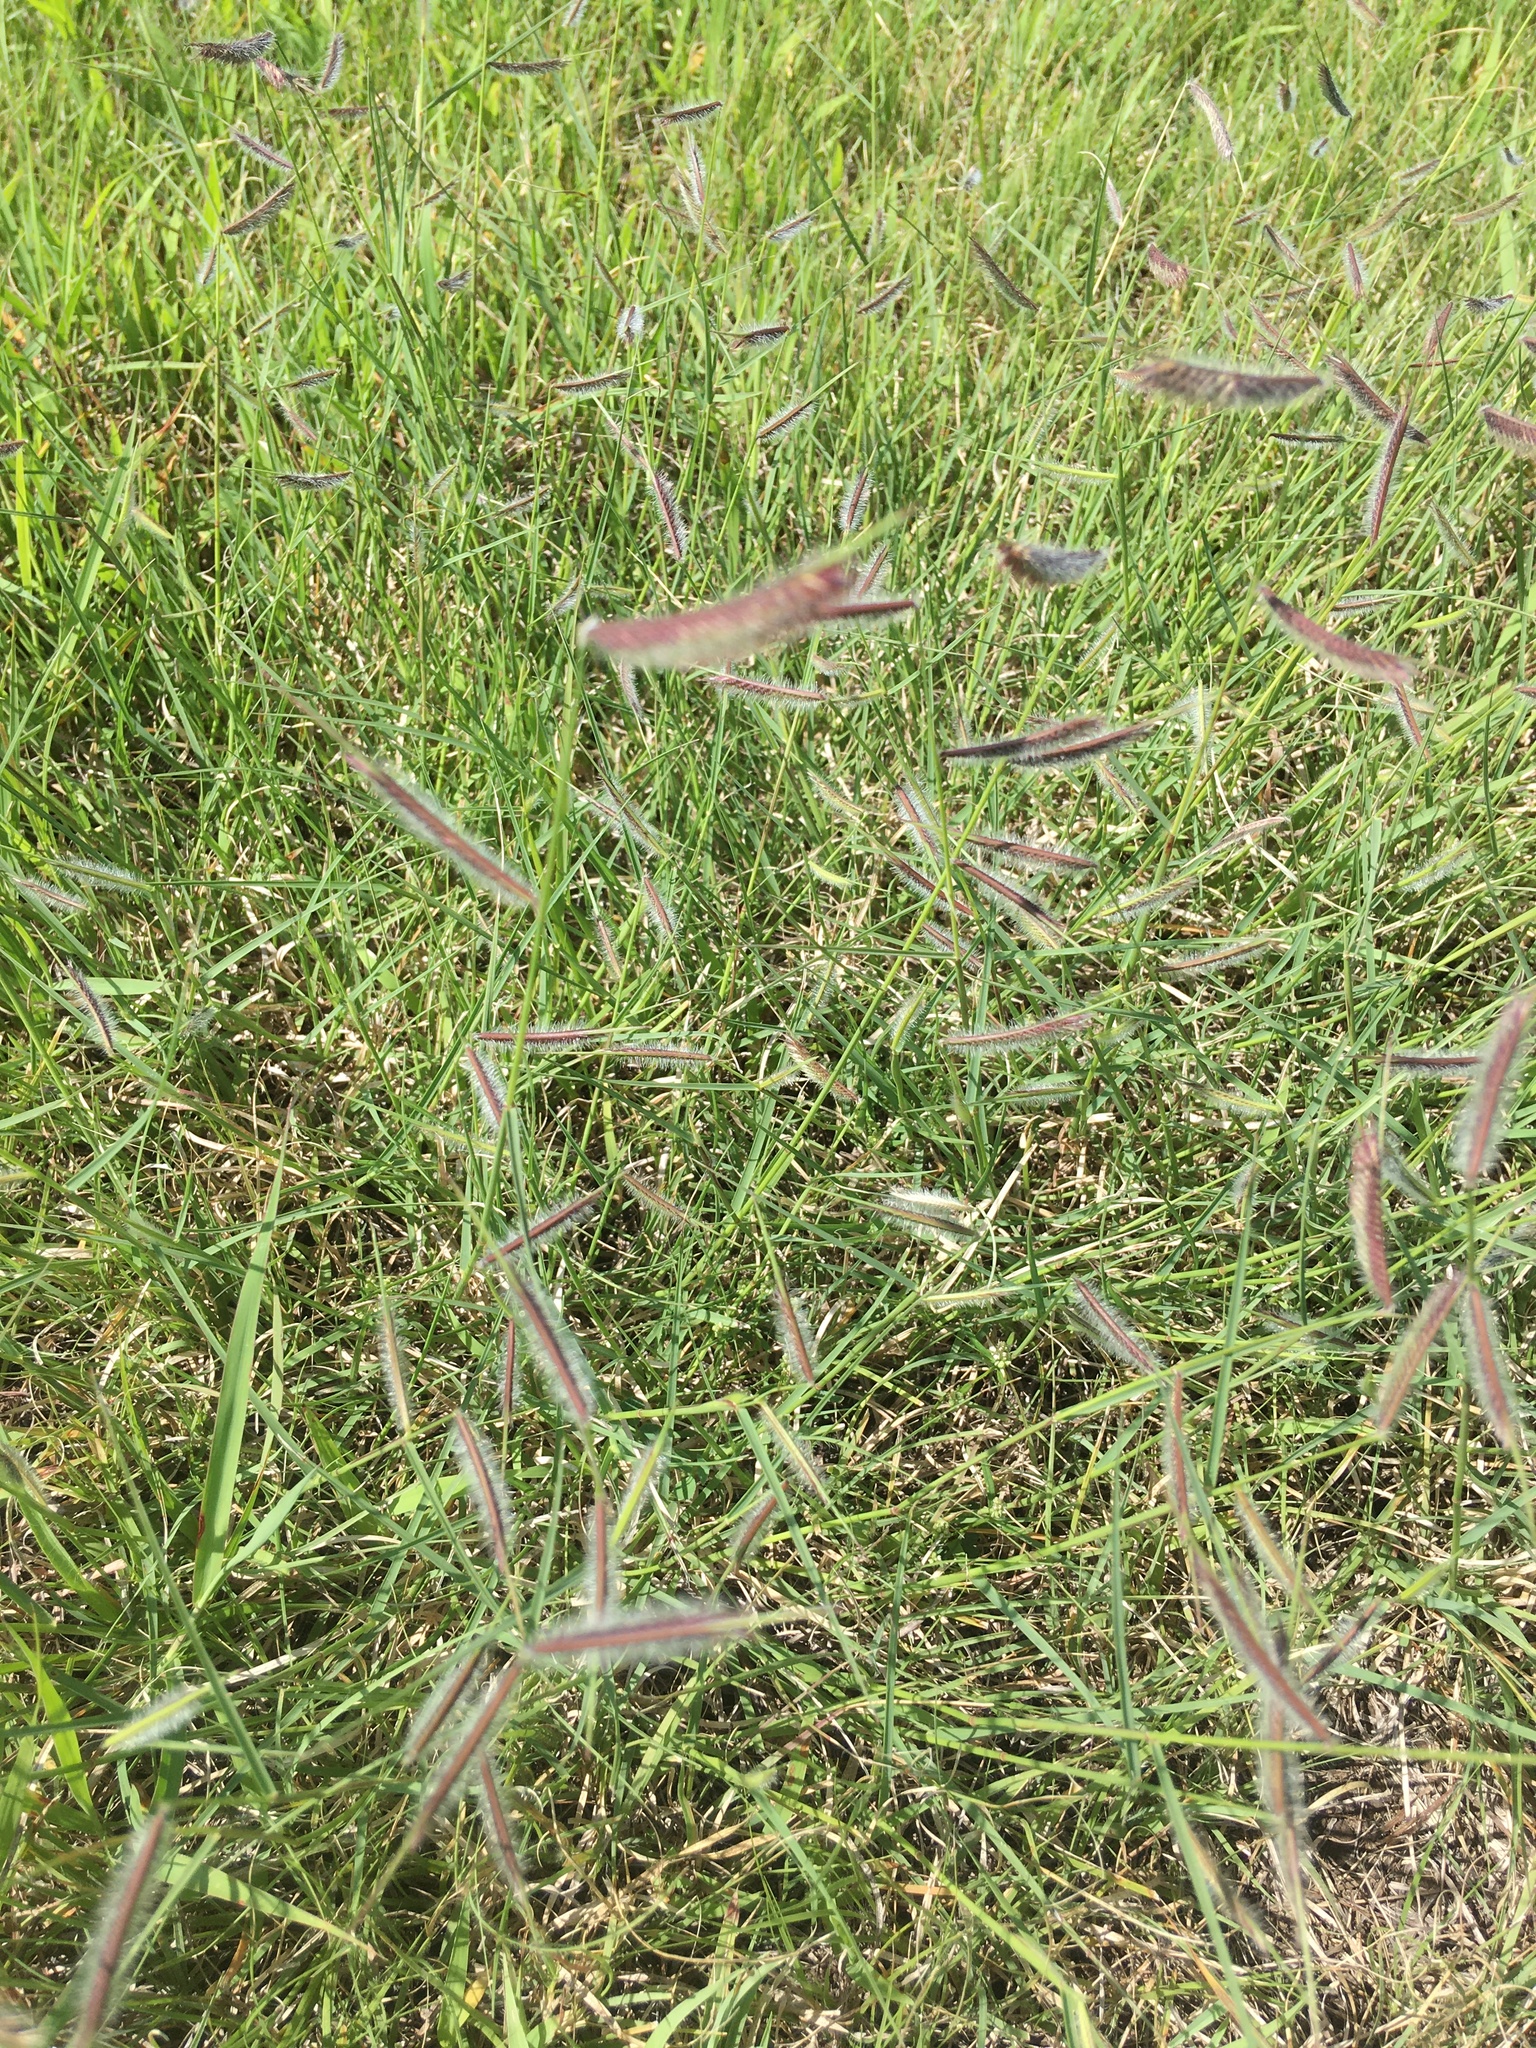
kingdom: Plantae
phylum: Tracheophyta
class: Liliopsida
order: Poales
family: Poaceae
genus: Bouteloua
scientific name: Bouteloua hirsuta
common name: Hairy grama
